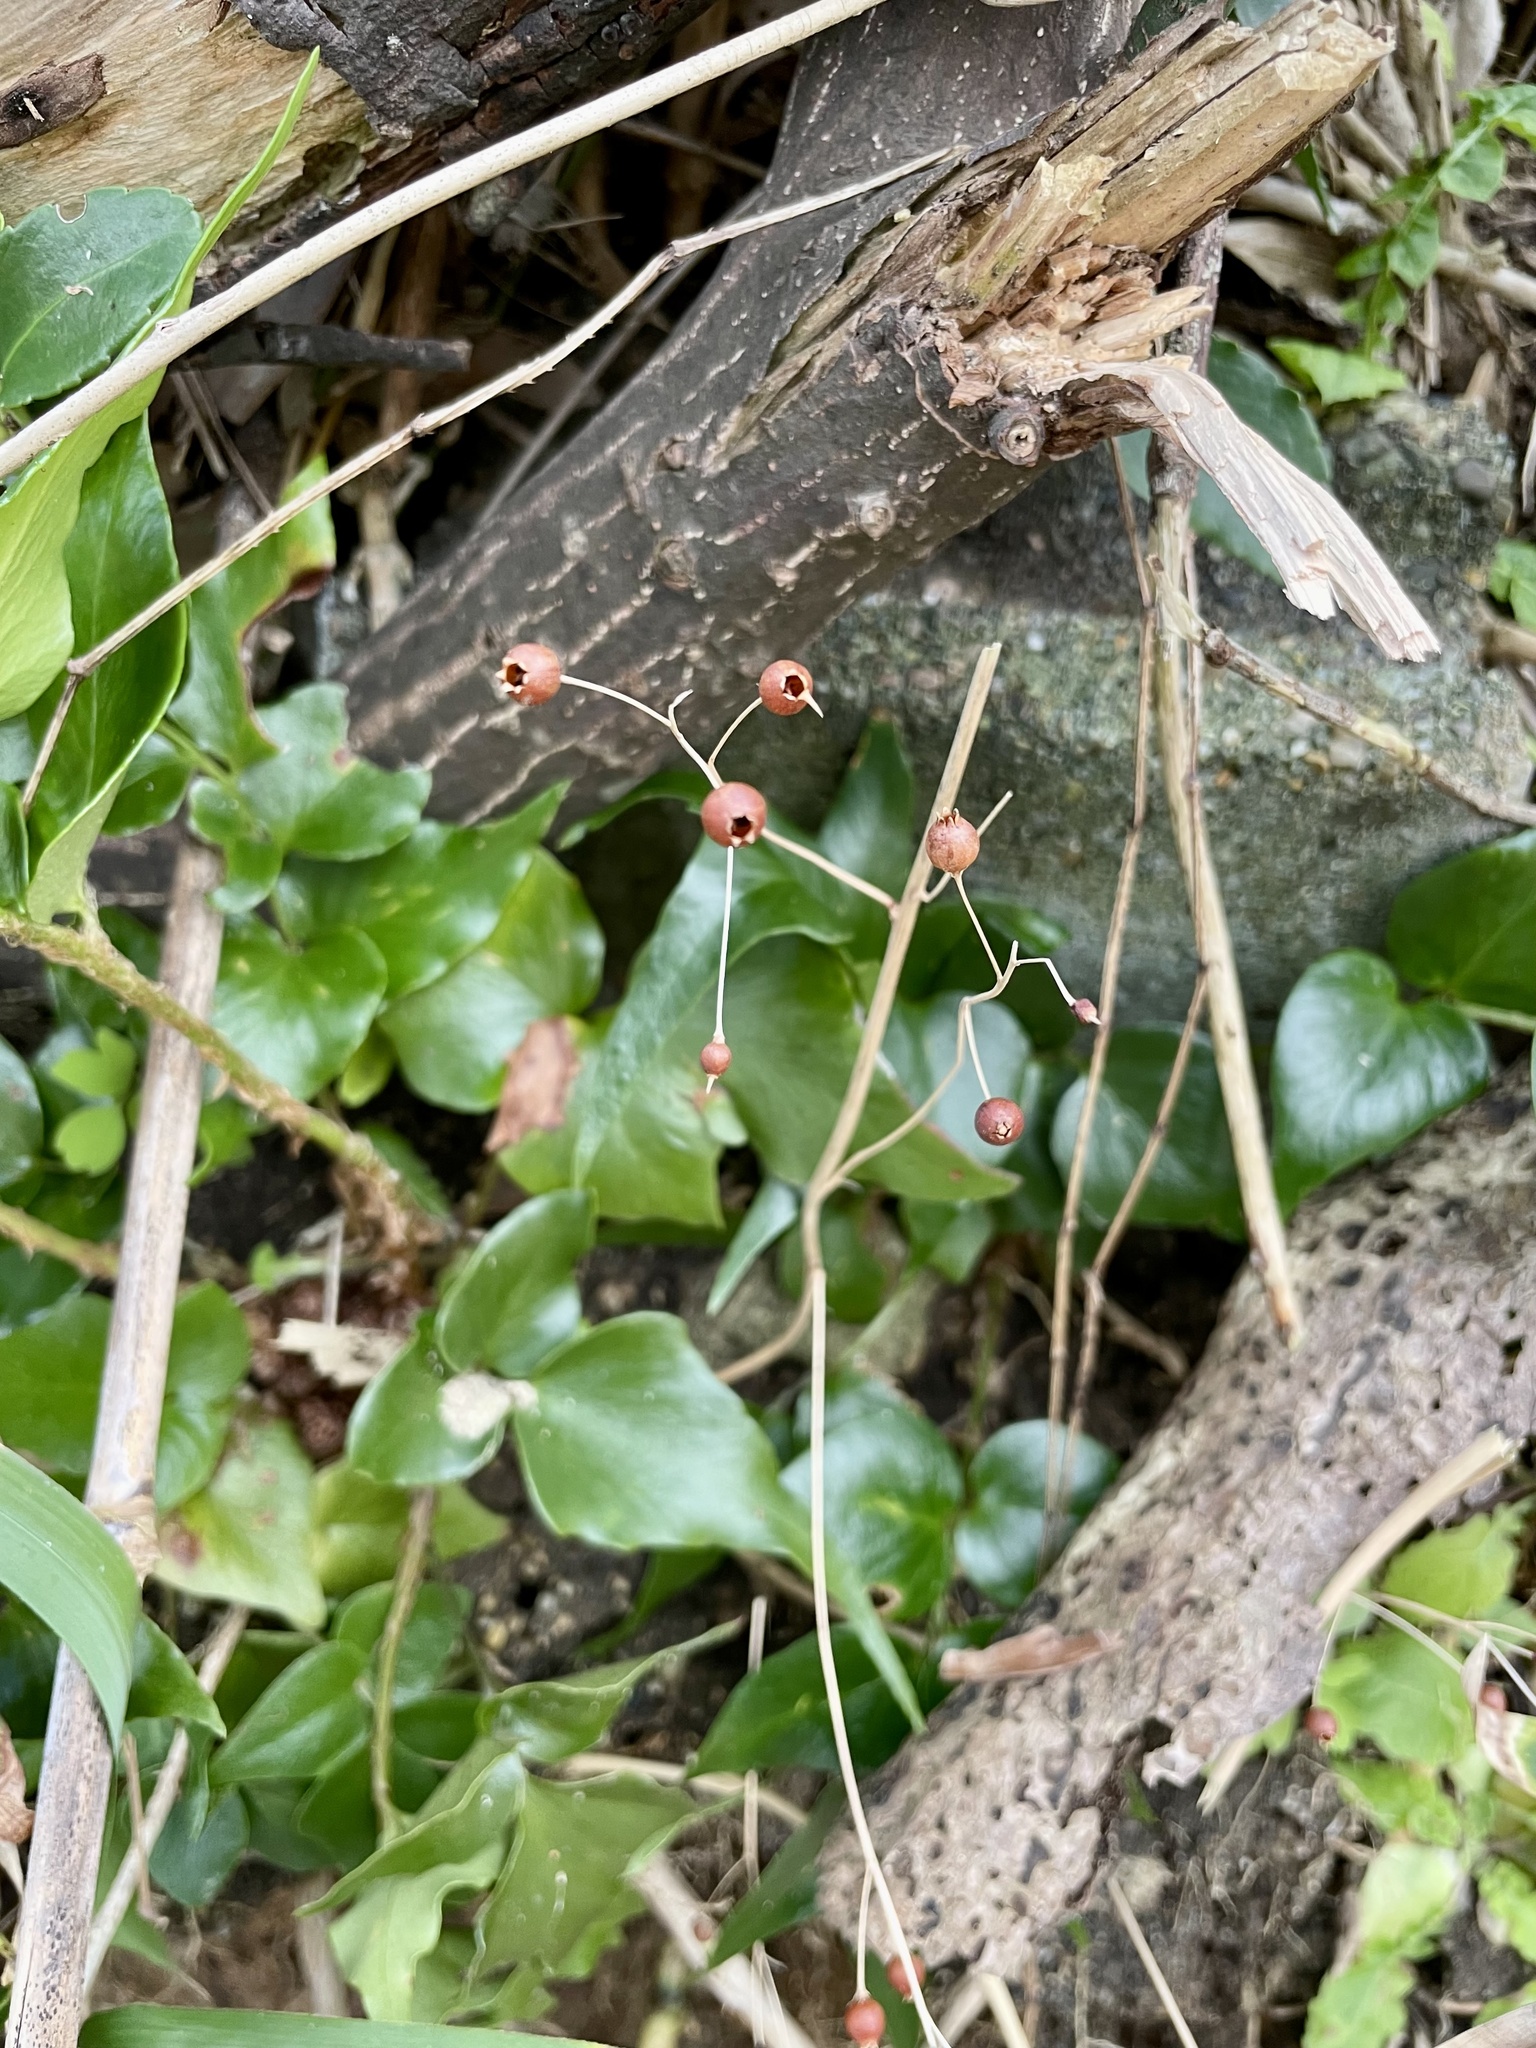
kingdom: Plantae
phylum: Tracheophyta
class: Magnoliopsida
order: Ericales
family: Primulaceae
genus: Lysimachia
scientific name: Lysimachia mauritiana
